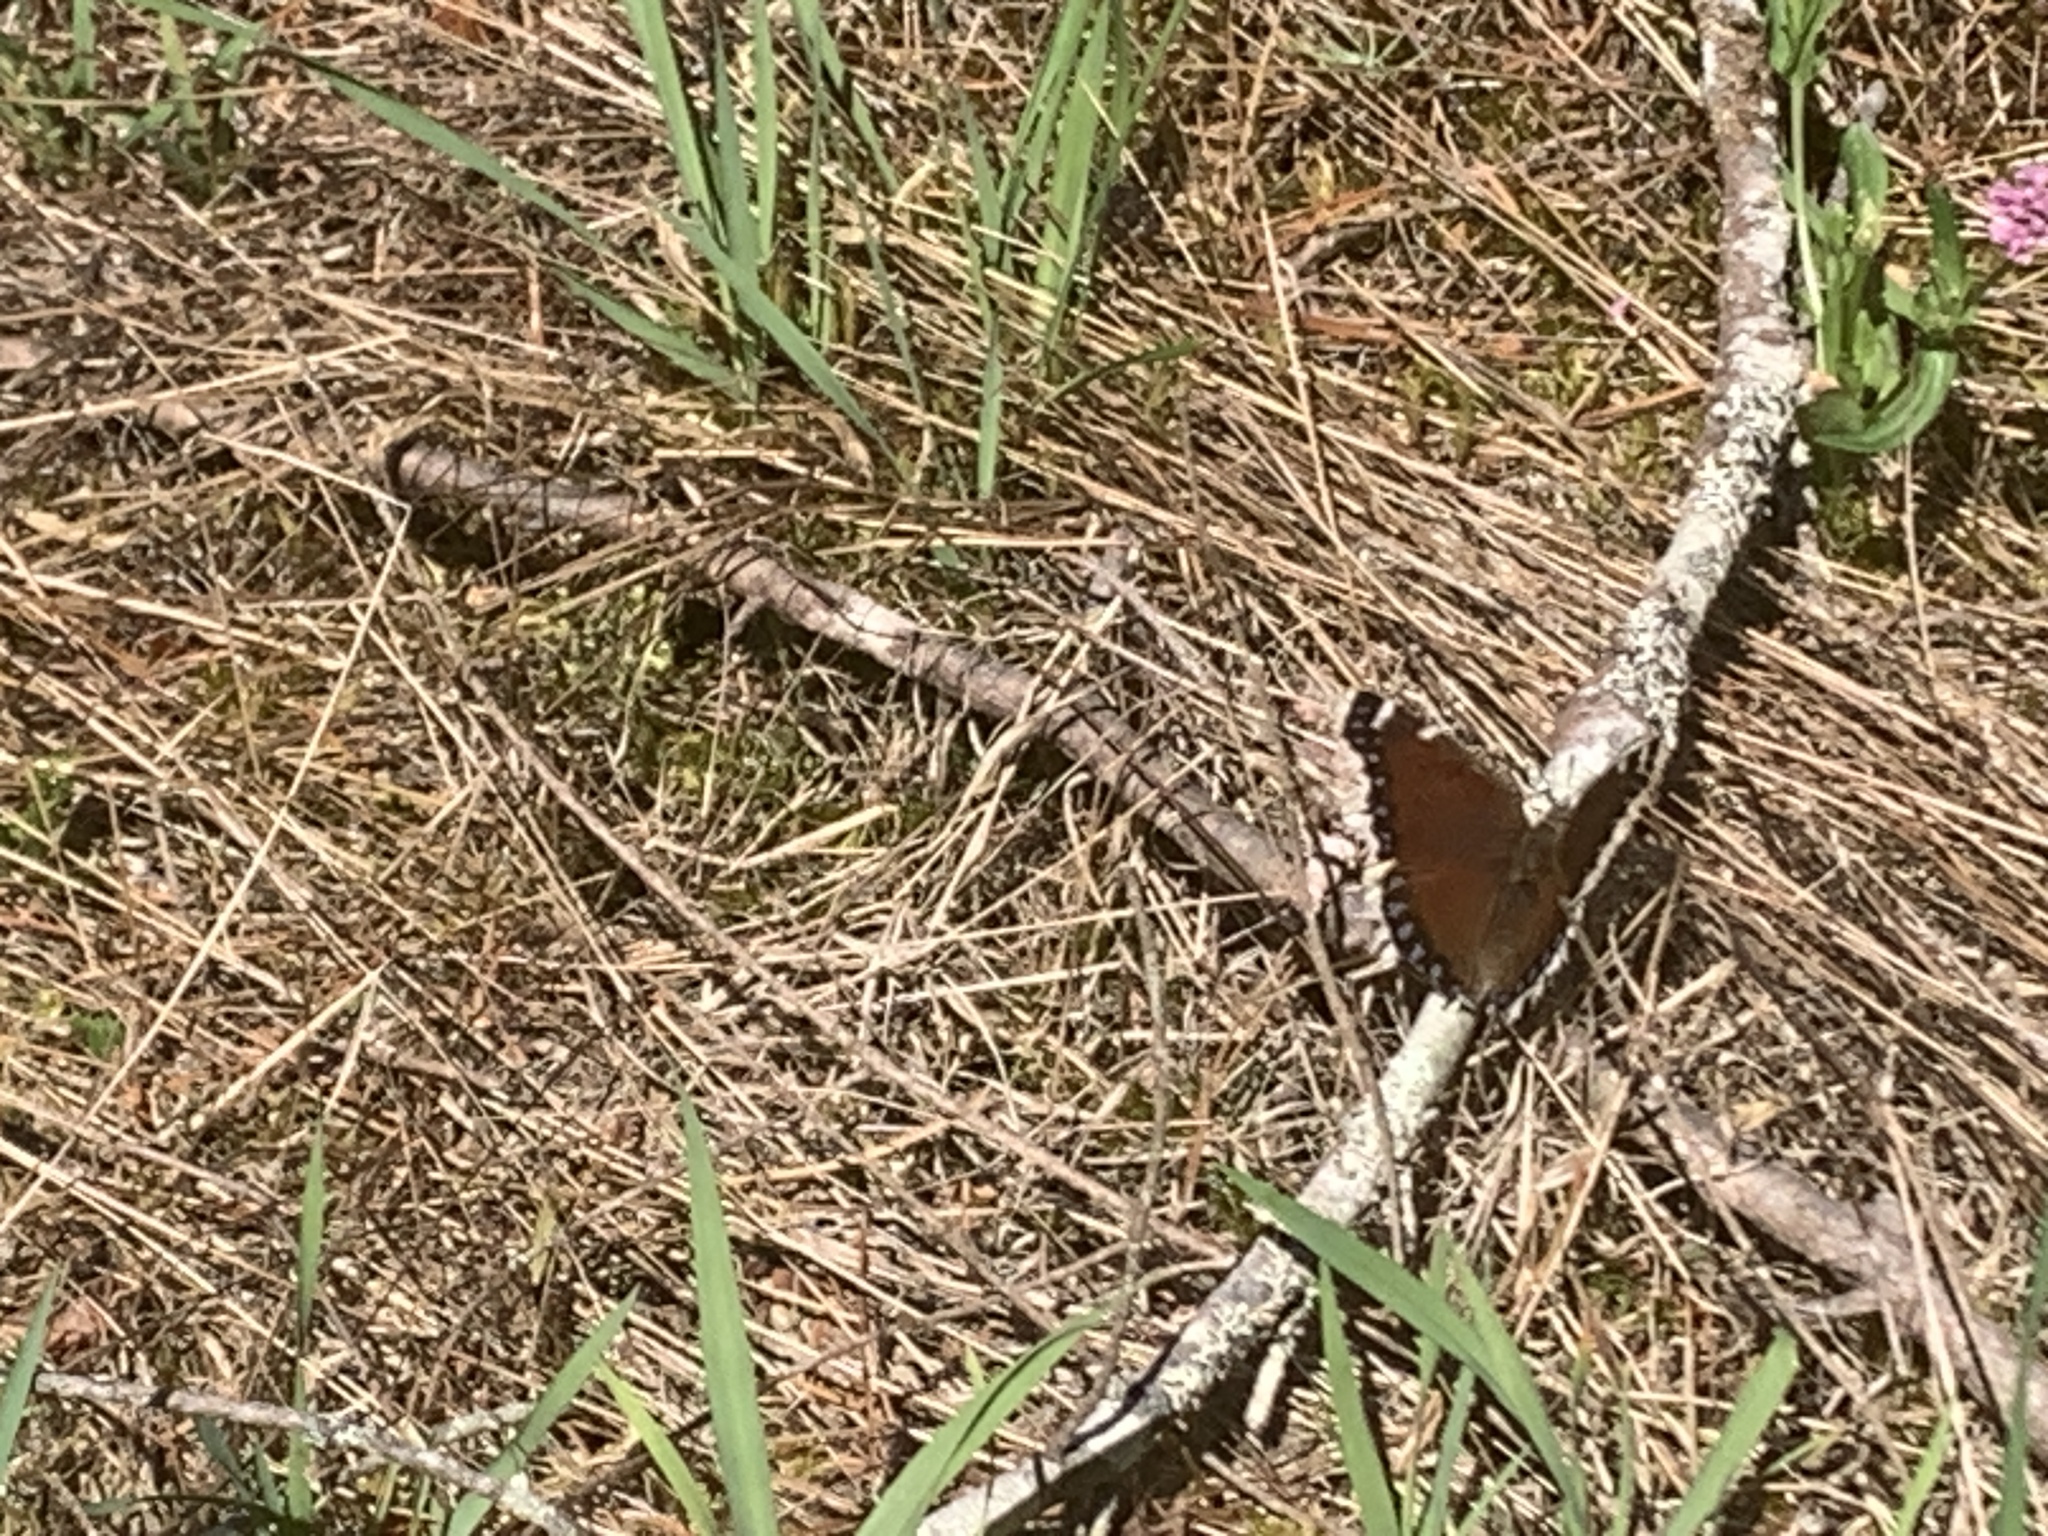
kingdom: Animalia
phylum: Arthropoda
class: Insecta
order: Lepidoptera
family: Nymphalidae
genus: Nymphalis
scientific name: Nymphalis antiopa
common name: Camberwell beauty
